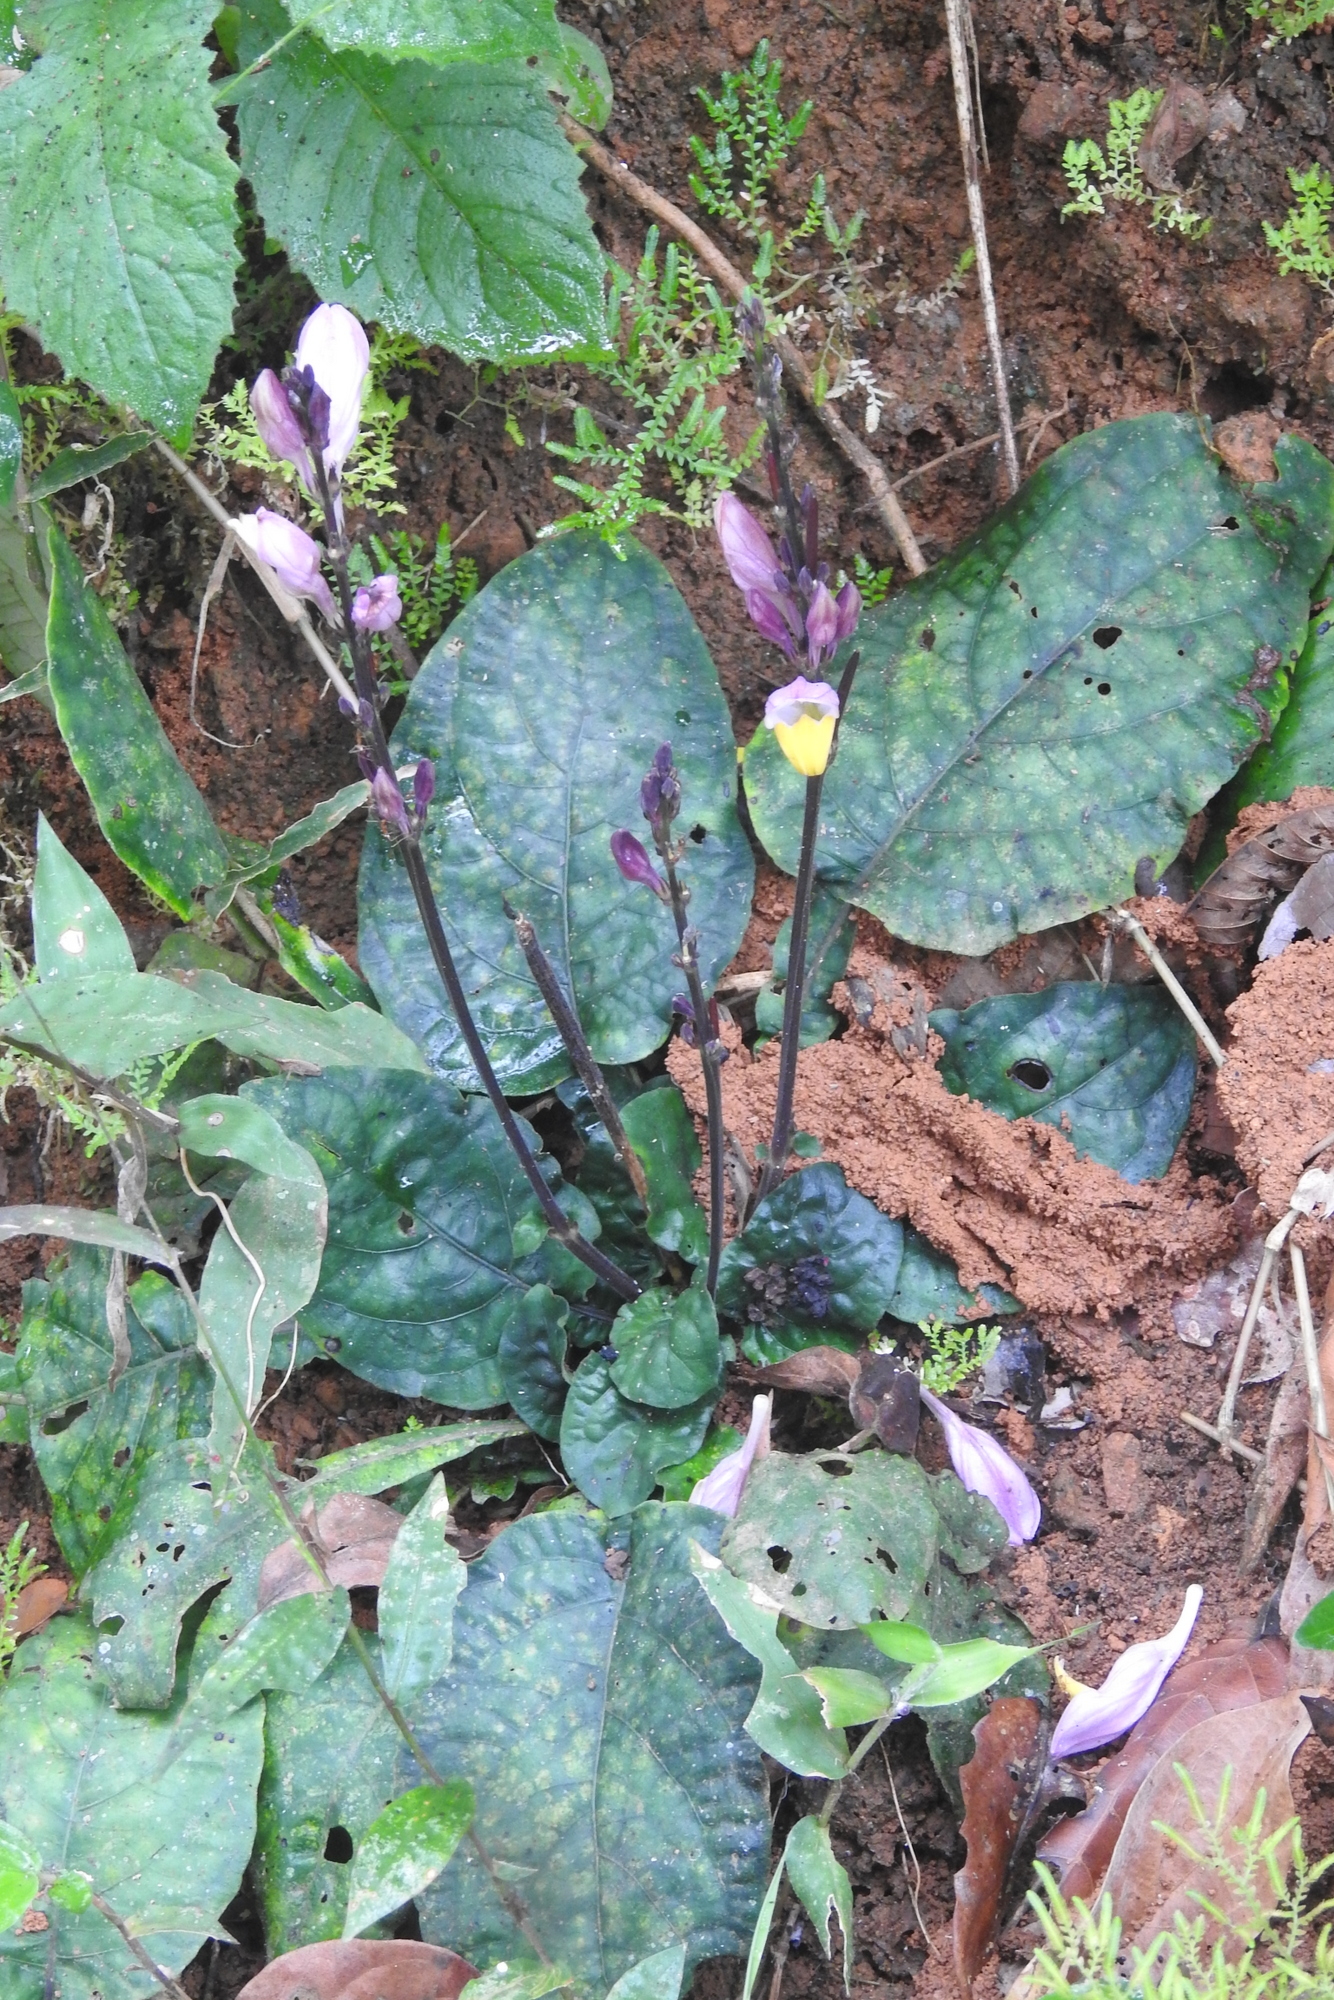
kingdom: Plantae
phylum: Tracheophyta
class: Magnoliopsida
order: Lamiales
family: Acanthaceae
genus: Gymnostachyum
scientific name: Gymnostachyum febrifugum
